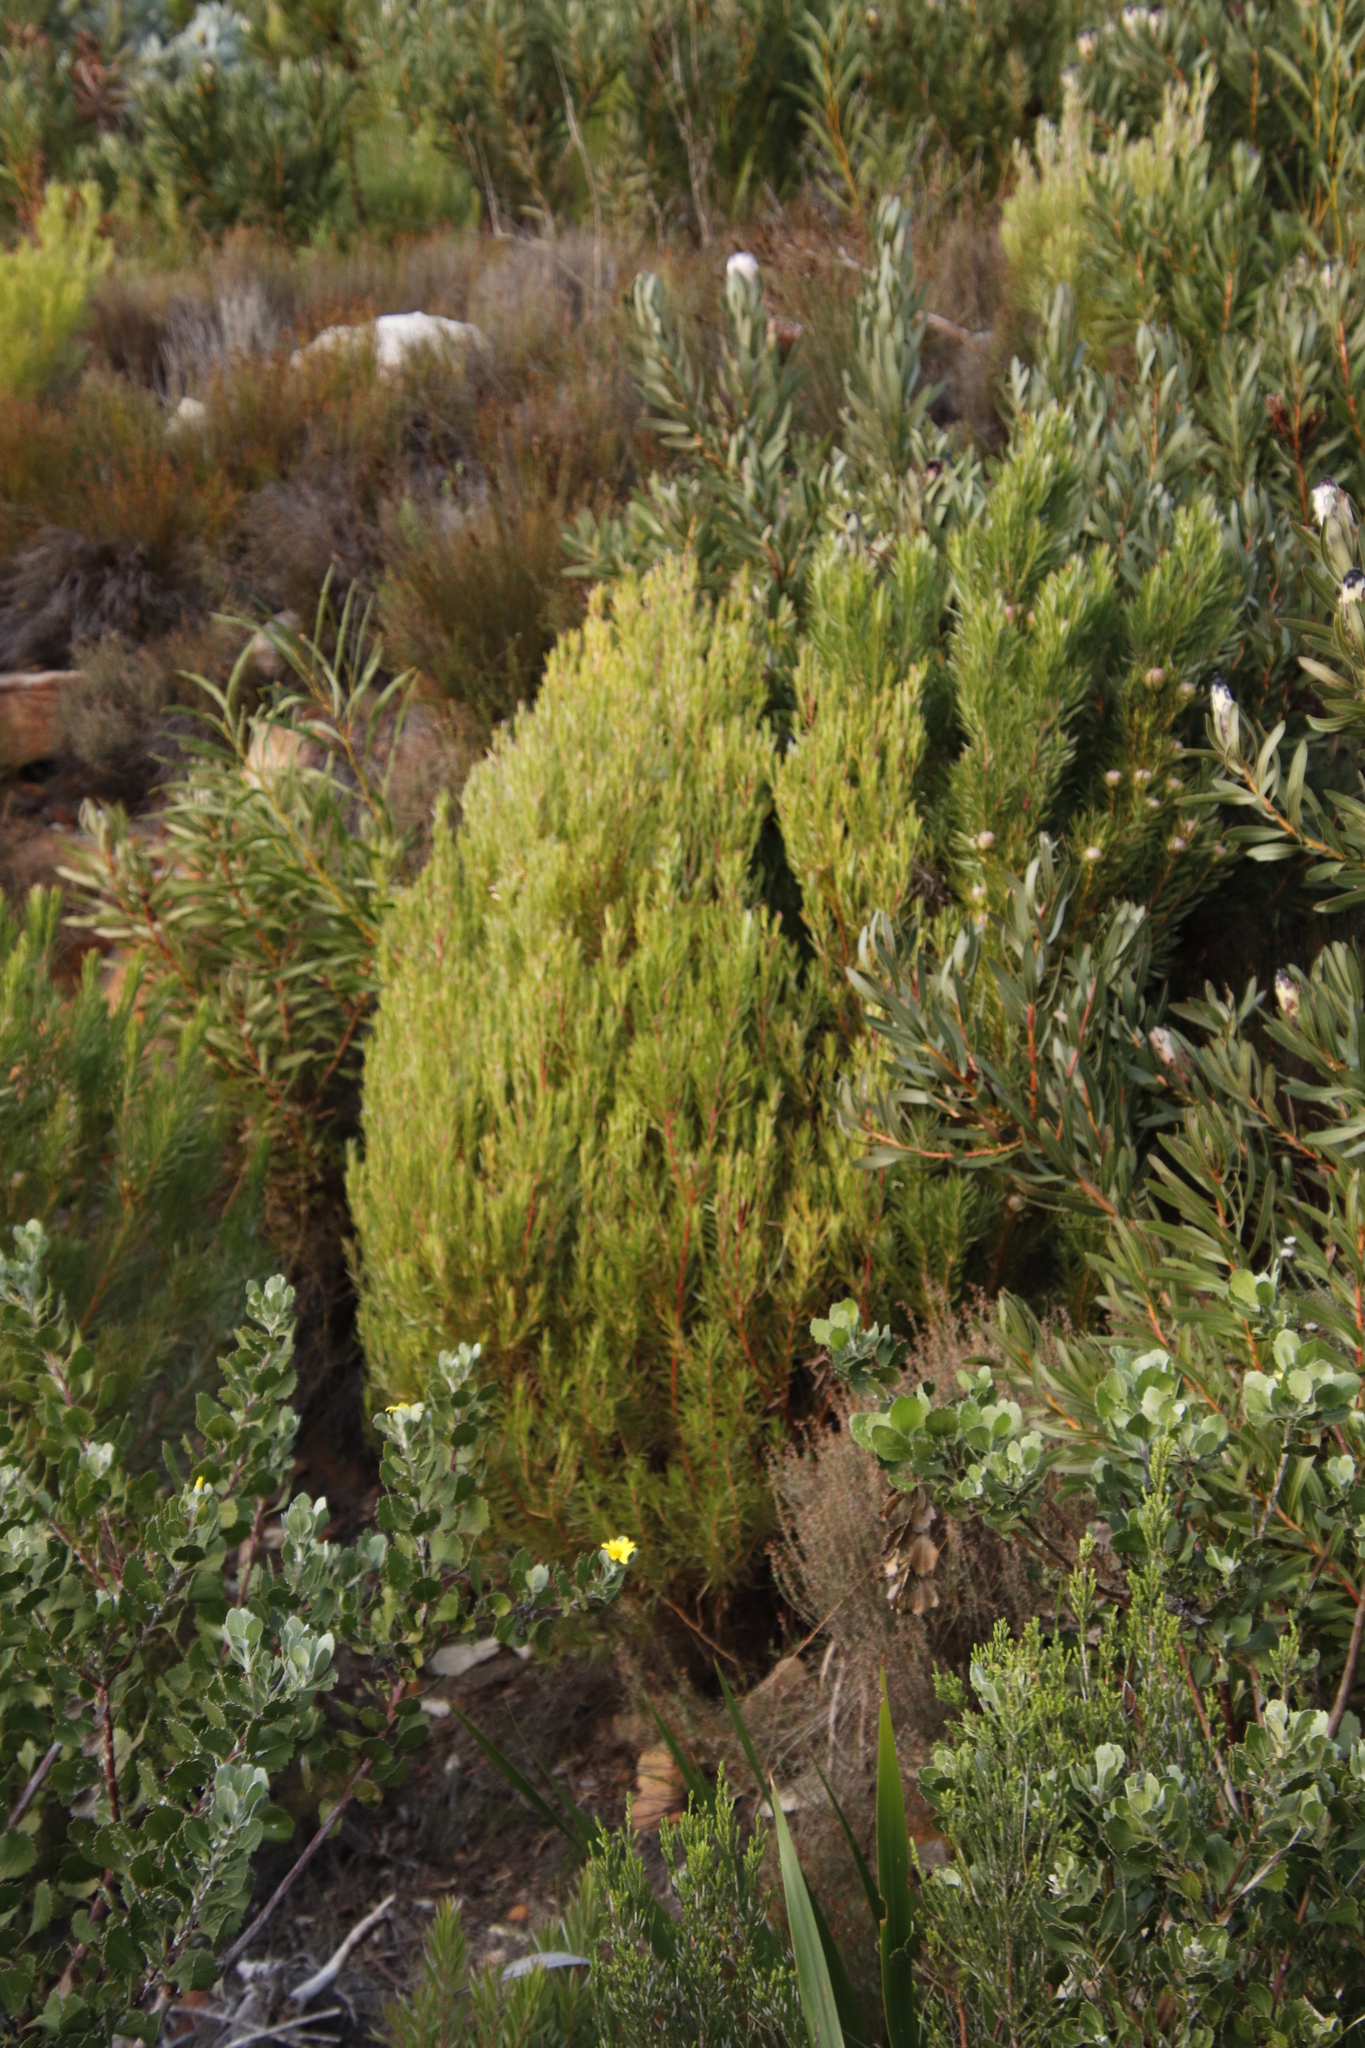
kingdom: Plantae
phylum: Tracheophyta
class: Magnoliopsida
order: Proteales
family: Proteaceae
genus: Leucadendron
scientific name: Leucadendron xanthoconus
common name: Sickle-leaf conebush
